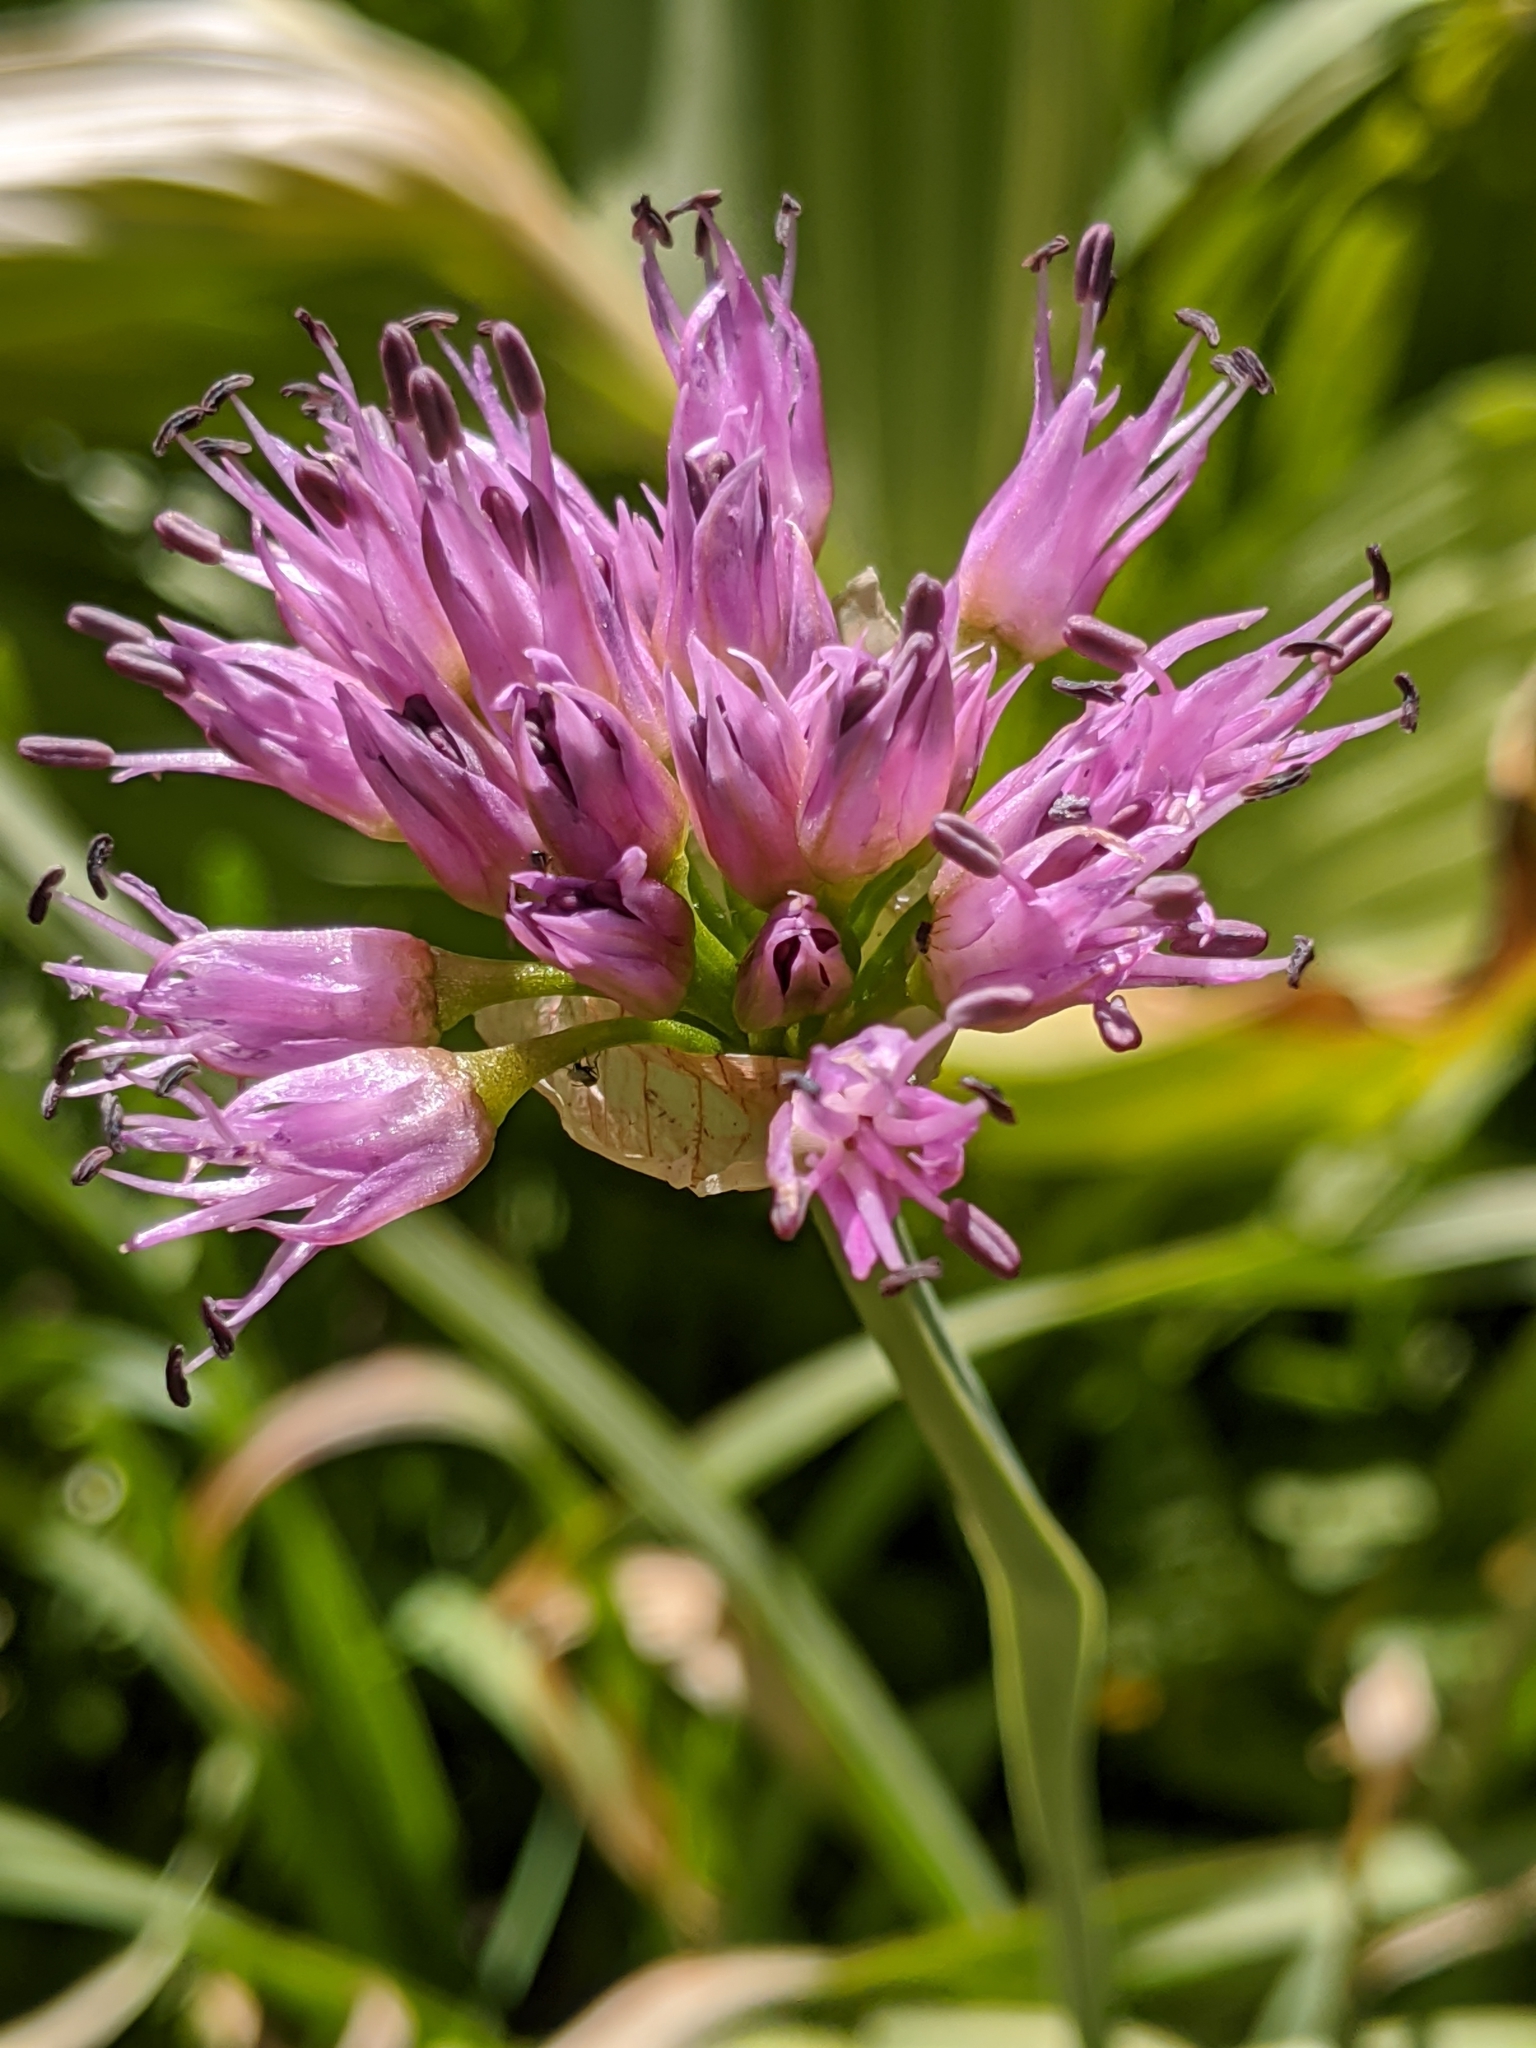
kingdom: Plantae
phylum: Tracheophyta
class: Liliopsida
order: Asparagales
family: Amaryllidaceae
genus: Allium
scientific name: Allium validum
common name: Pacific mountain onion
